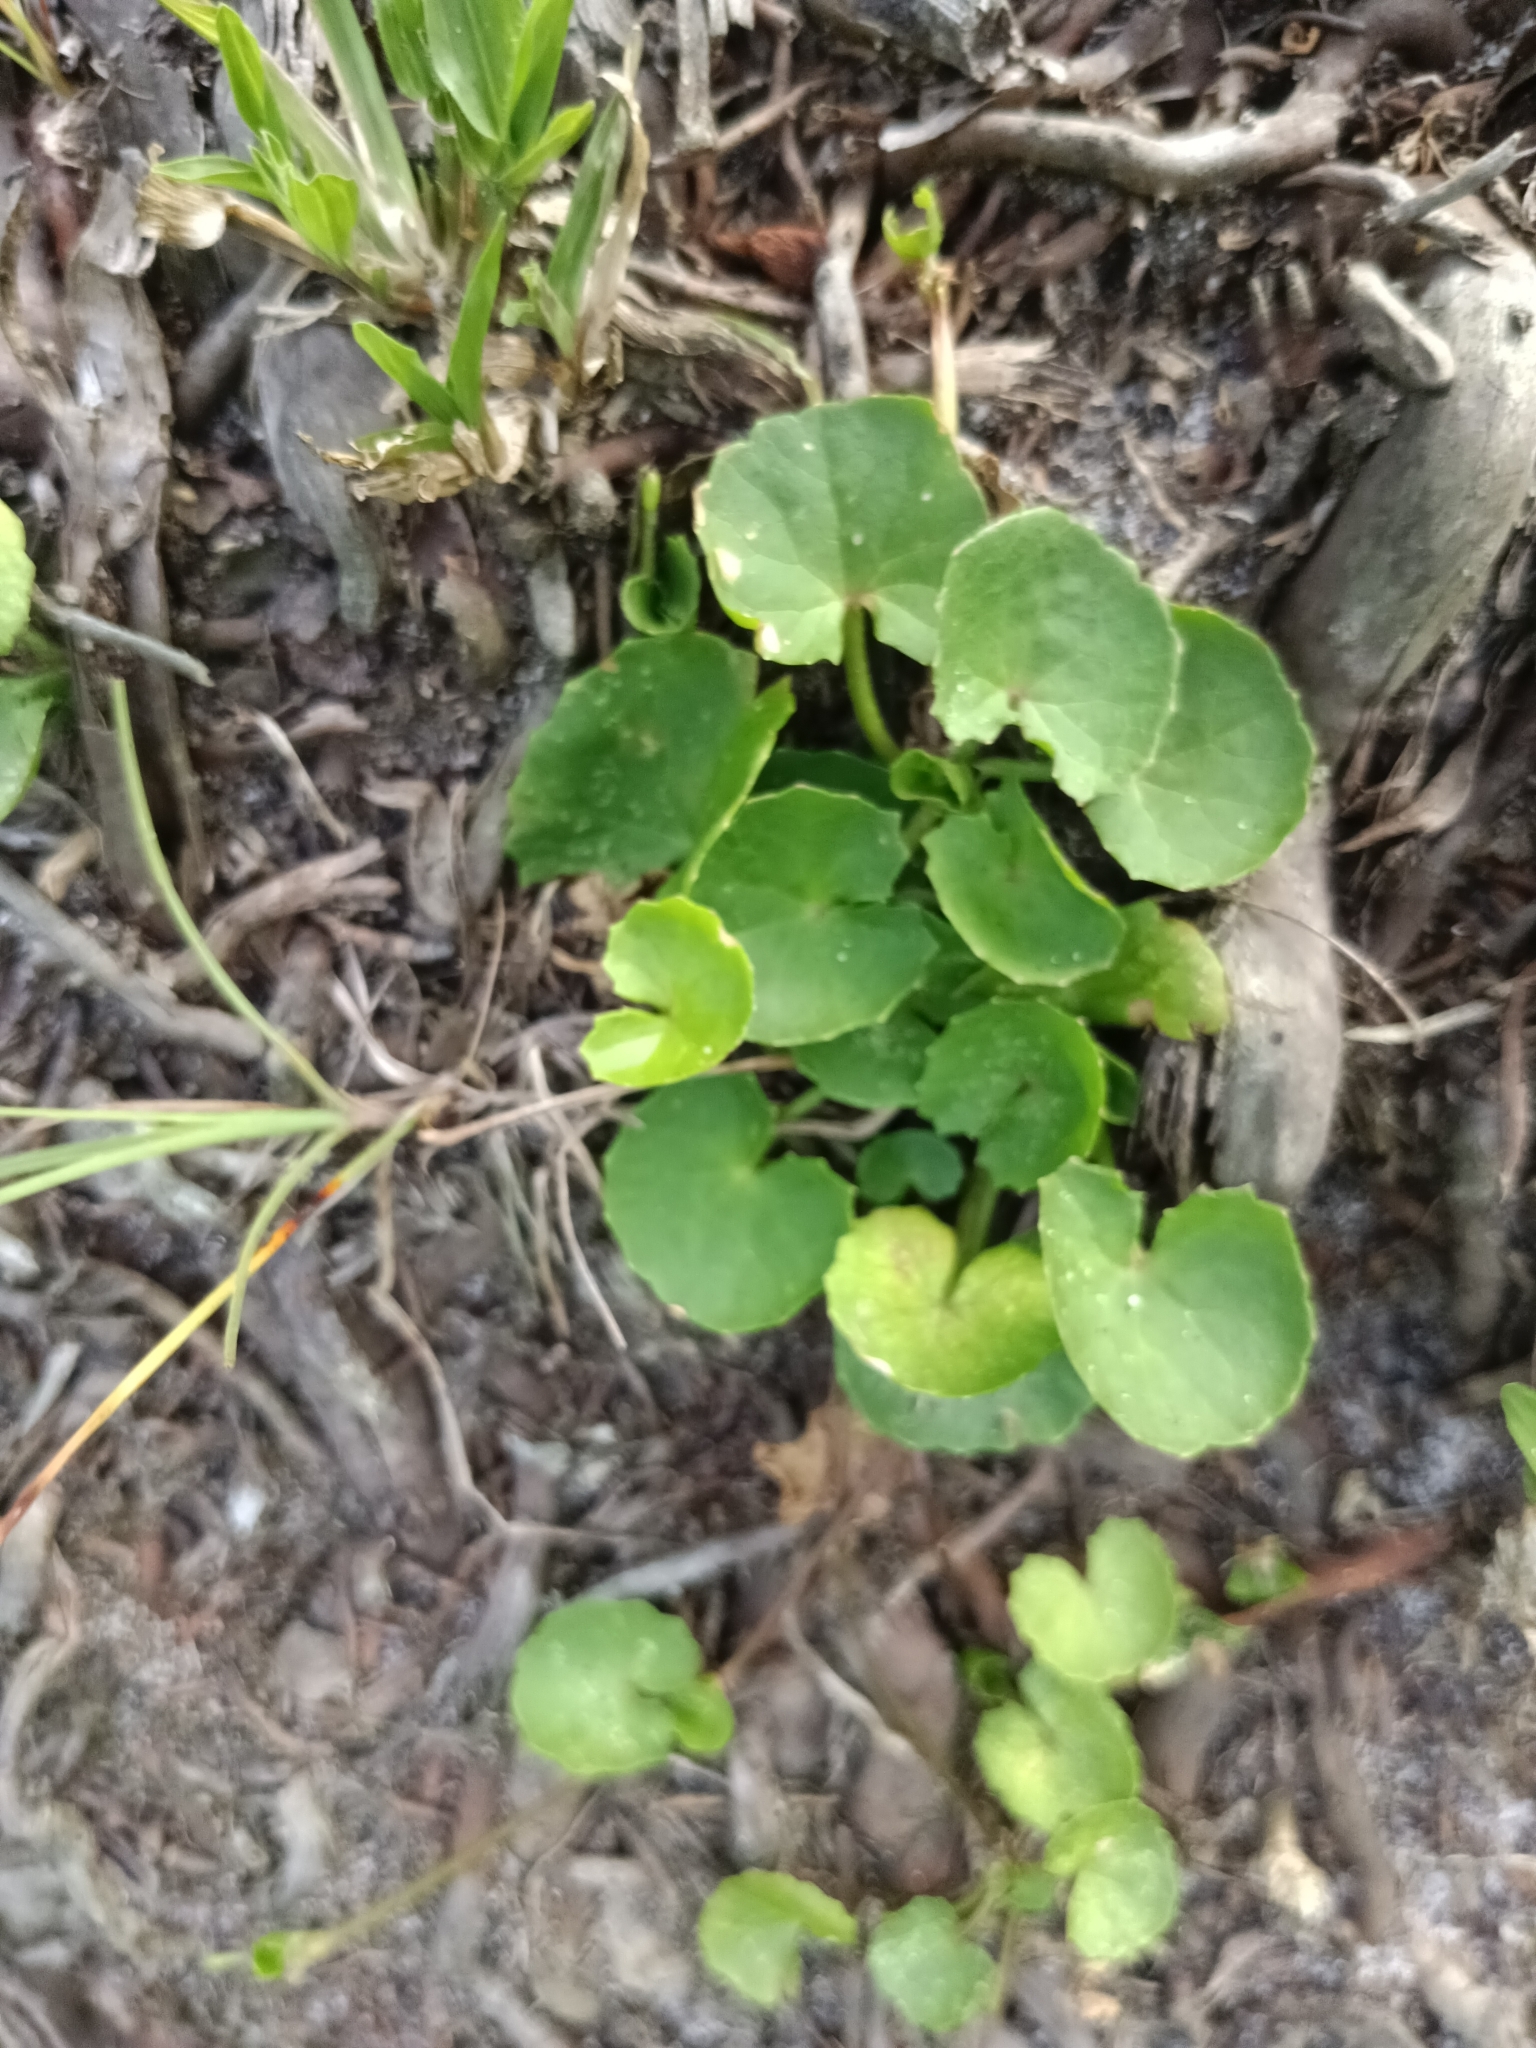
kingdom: Plantae
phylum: Tracheophyta
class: Magnoliopsida
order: Apiales
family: Apiaceae
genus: Centella
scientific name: Centella asiatica
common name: Spadeleaf
